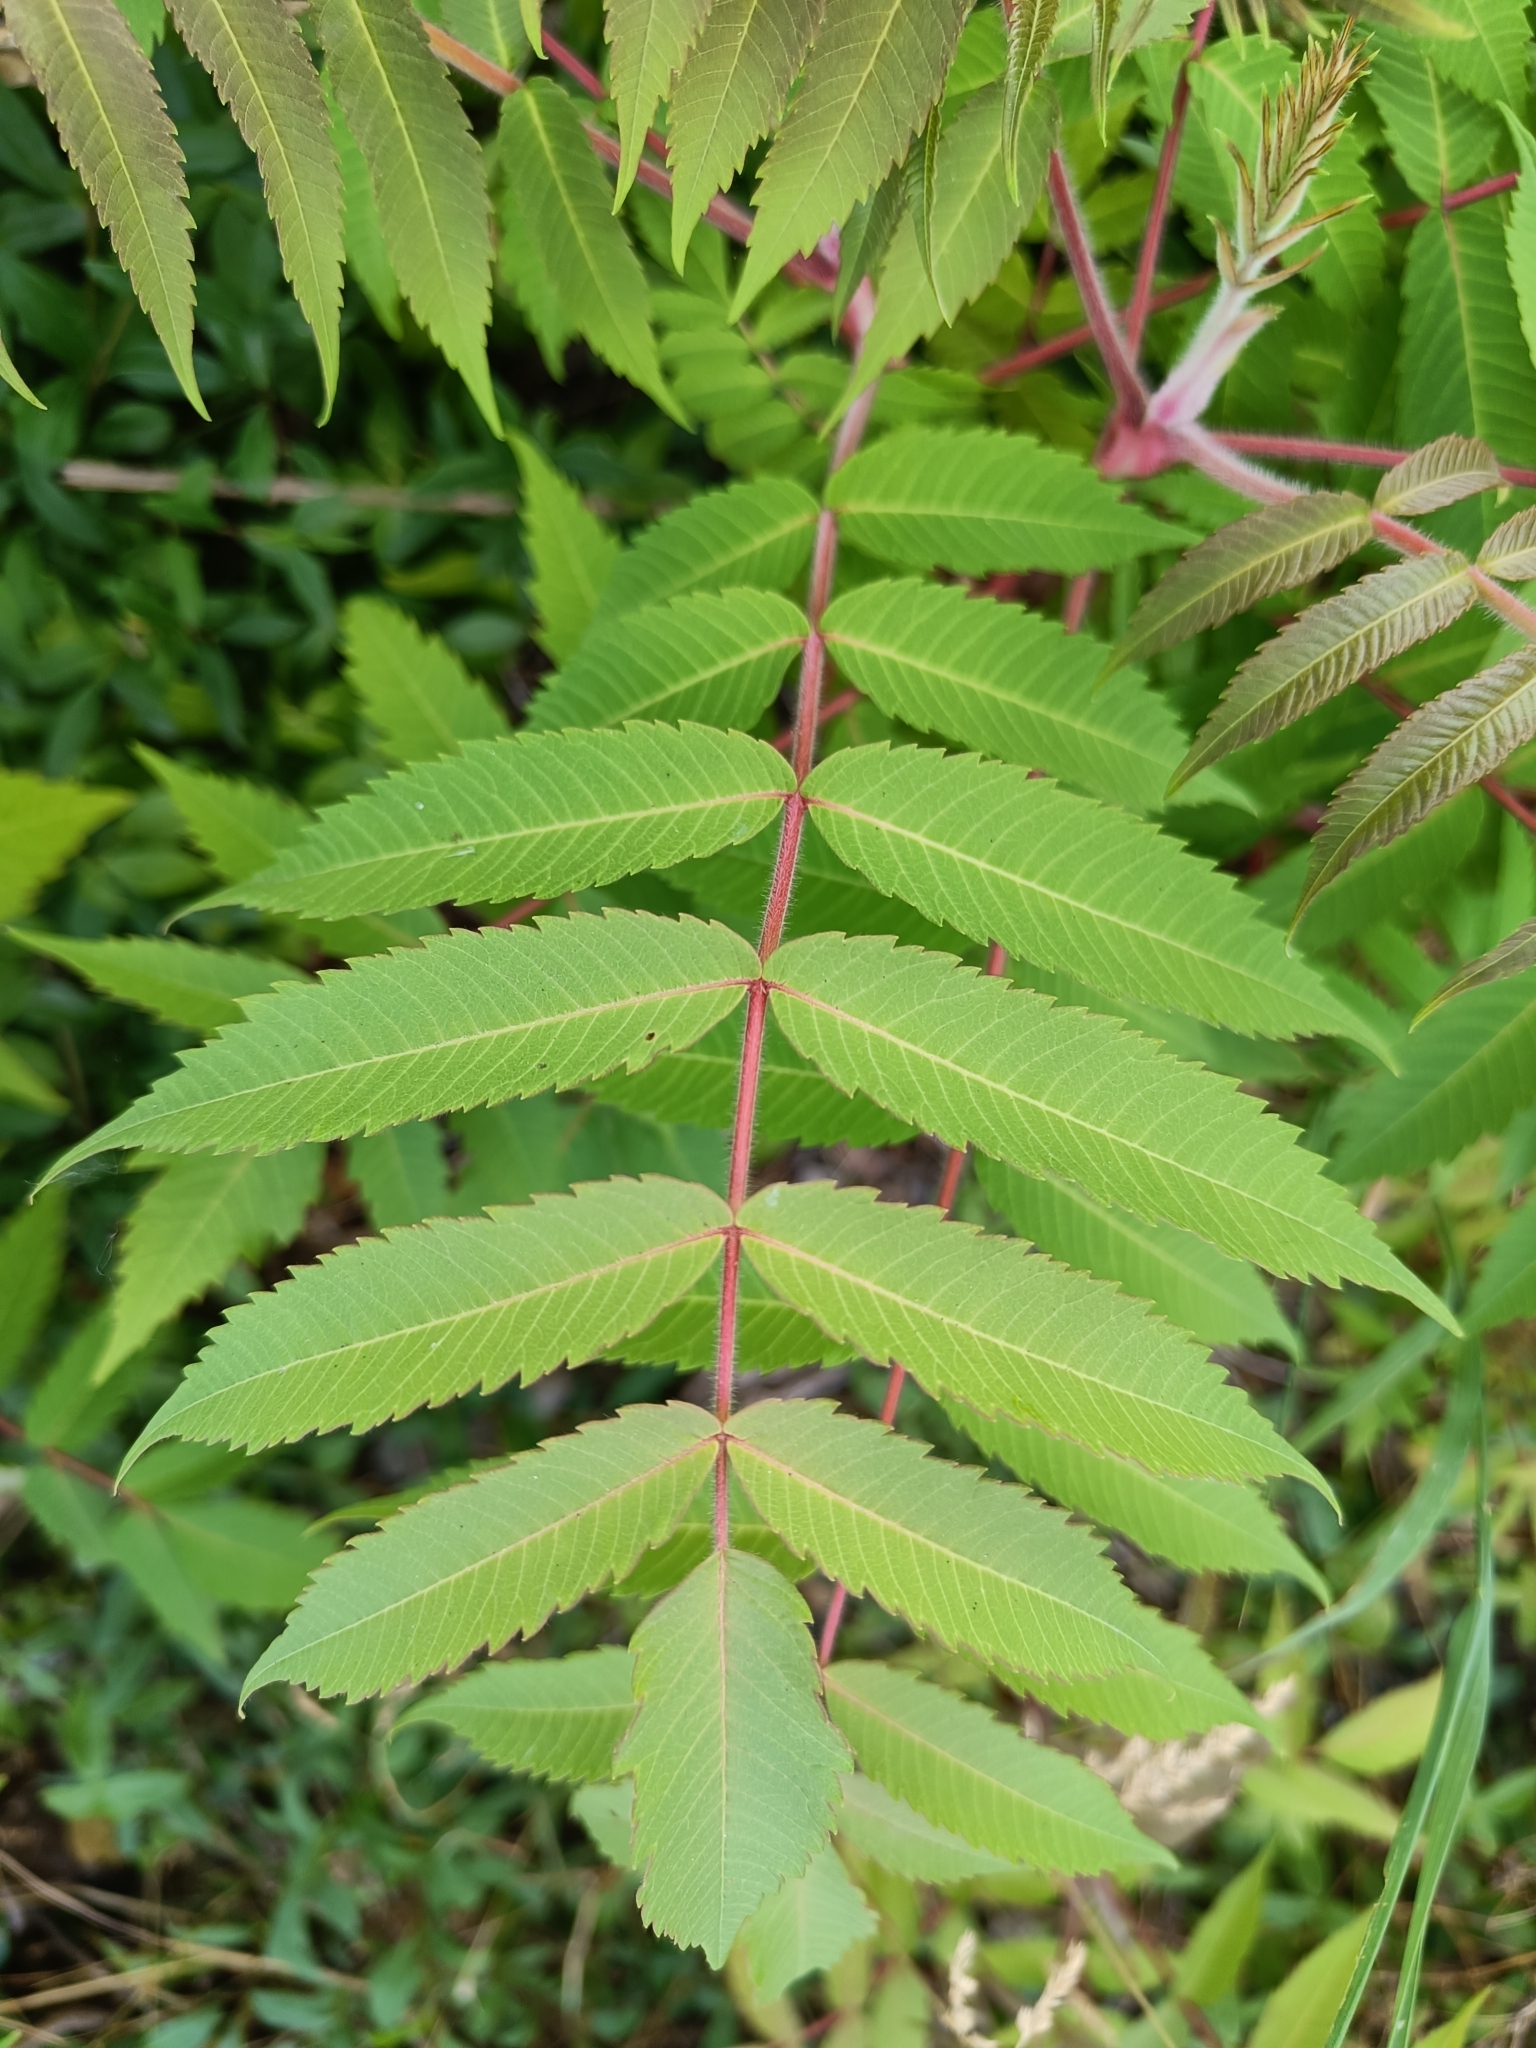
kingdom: Plantae
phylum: Tracheophyta
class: Magnoliopsida
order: Sapindales
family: Anacardiaceae
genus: Rhus
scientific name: Rhus typhina
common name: Staghorn sumac
